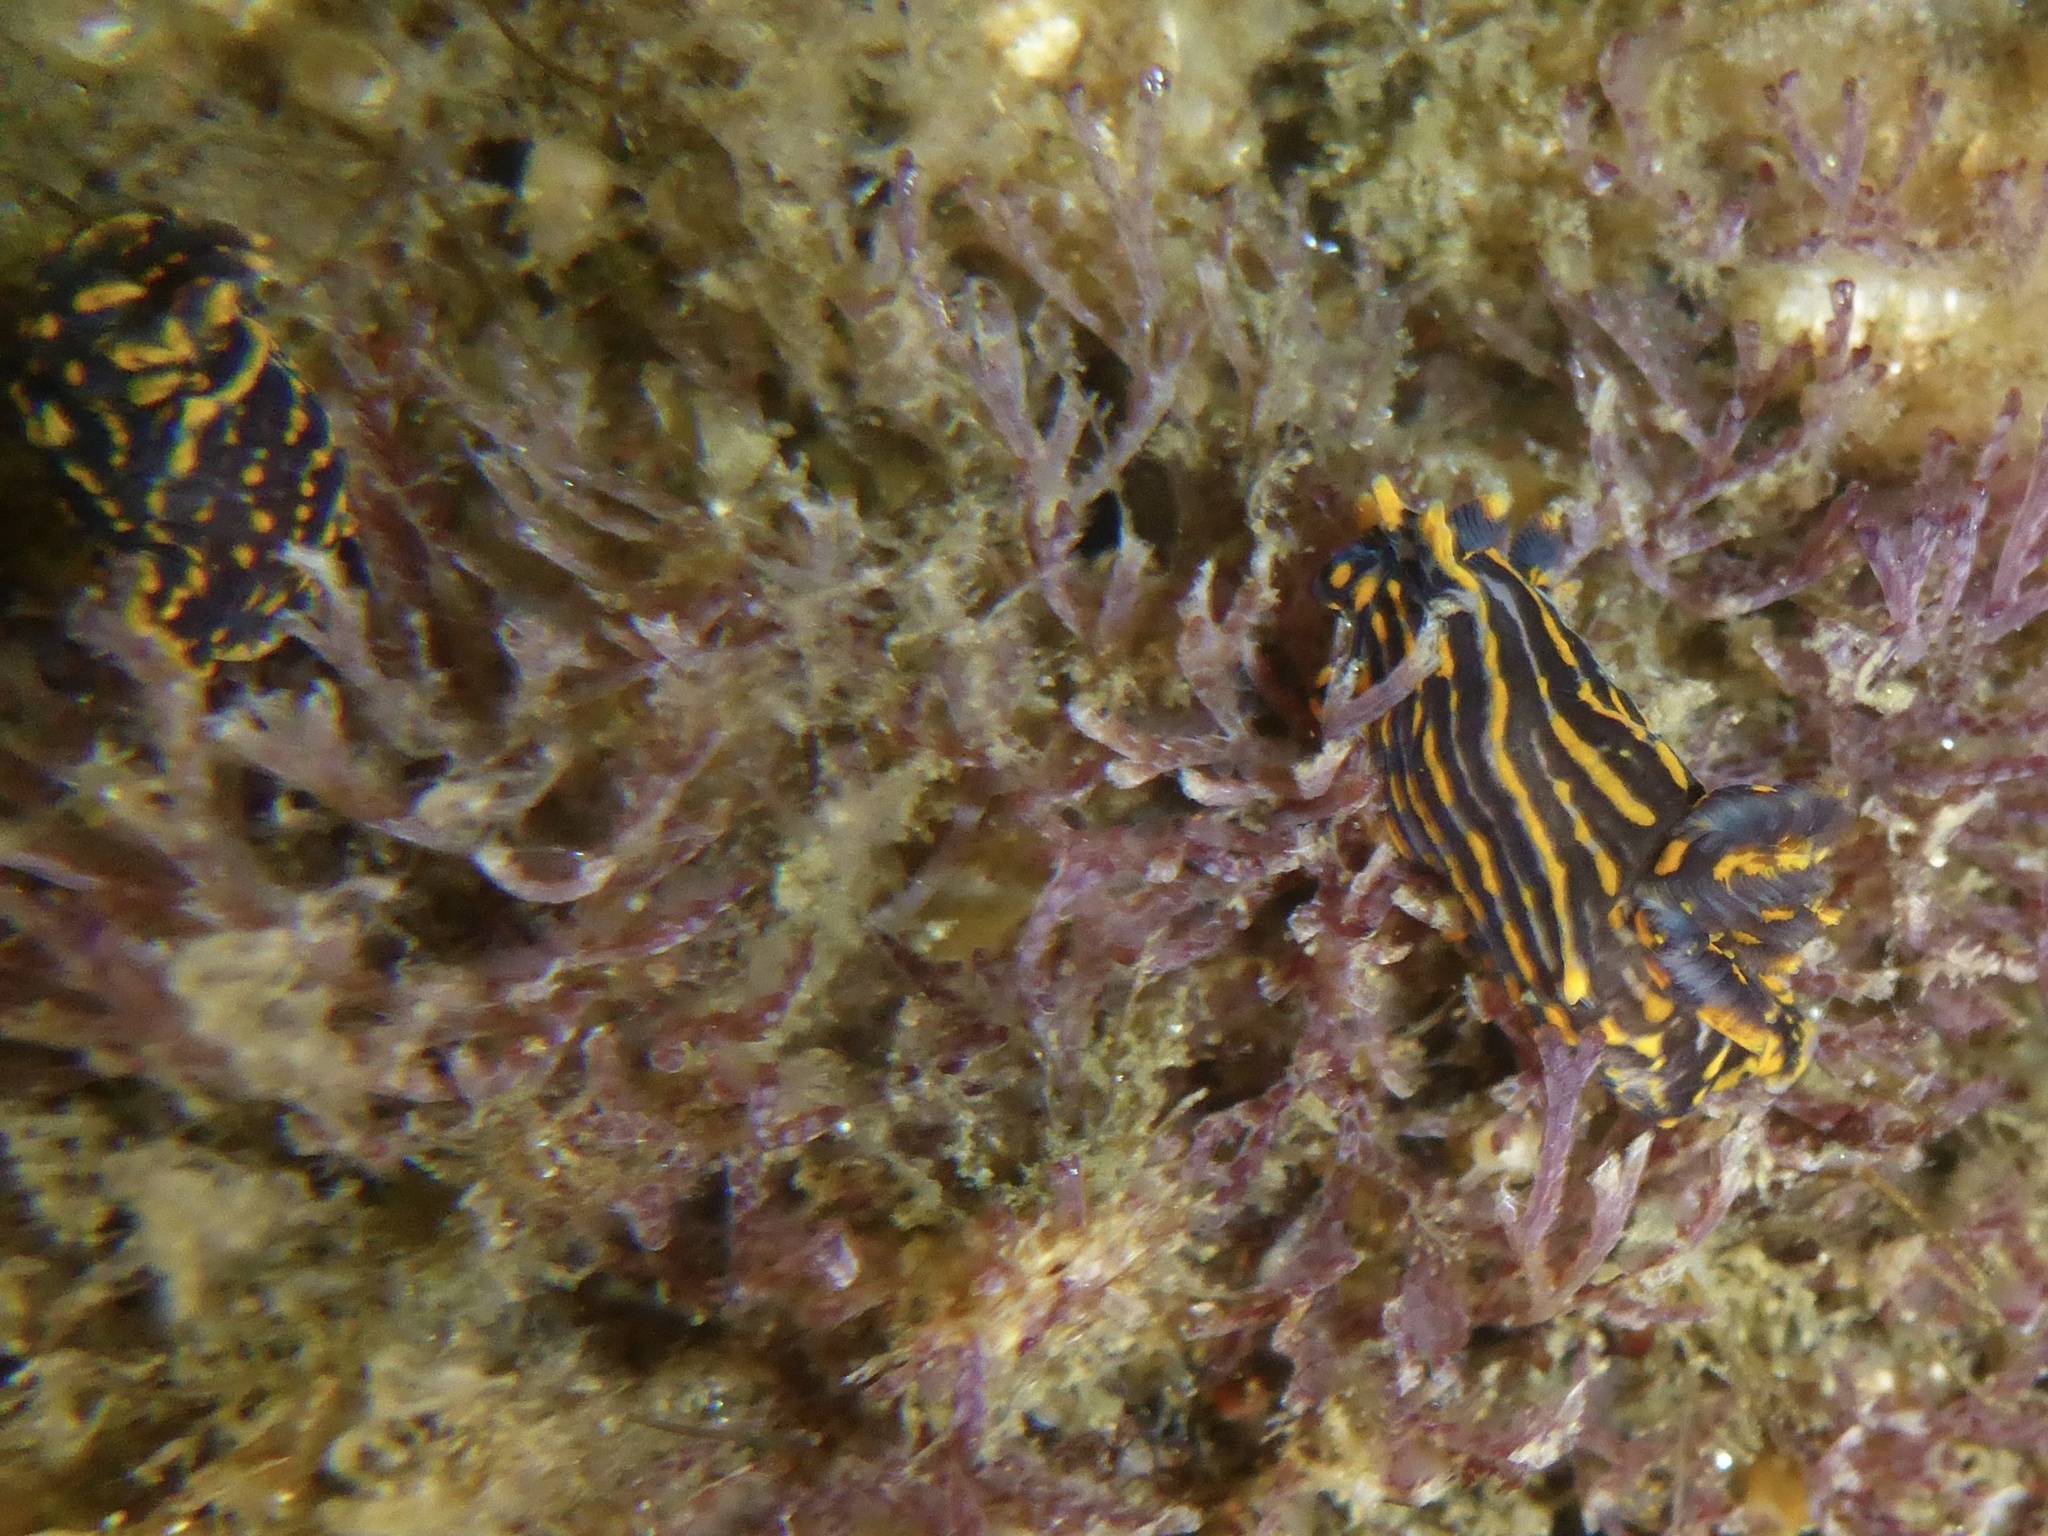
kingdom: Animalia
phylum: Mollusca
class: Gastropoda
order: Nudibranchia
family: Polyceridae
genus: Polycera
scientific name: Polycera atra
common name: Orange-spike polycera
